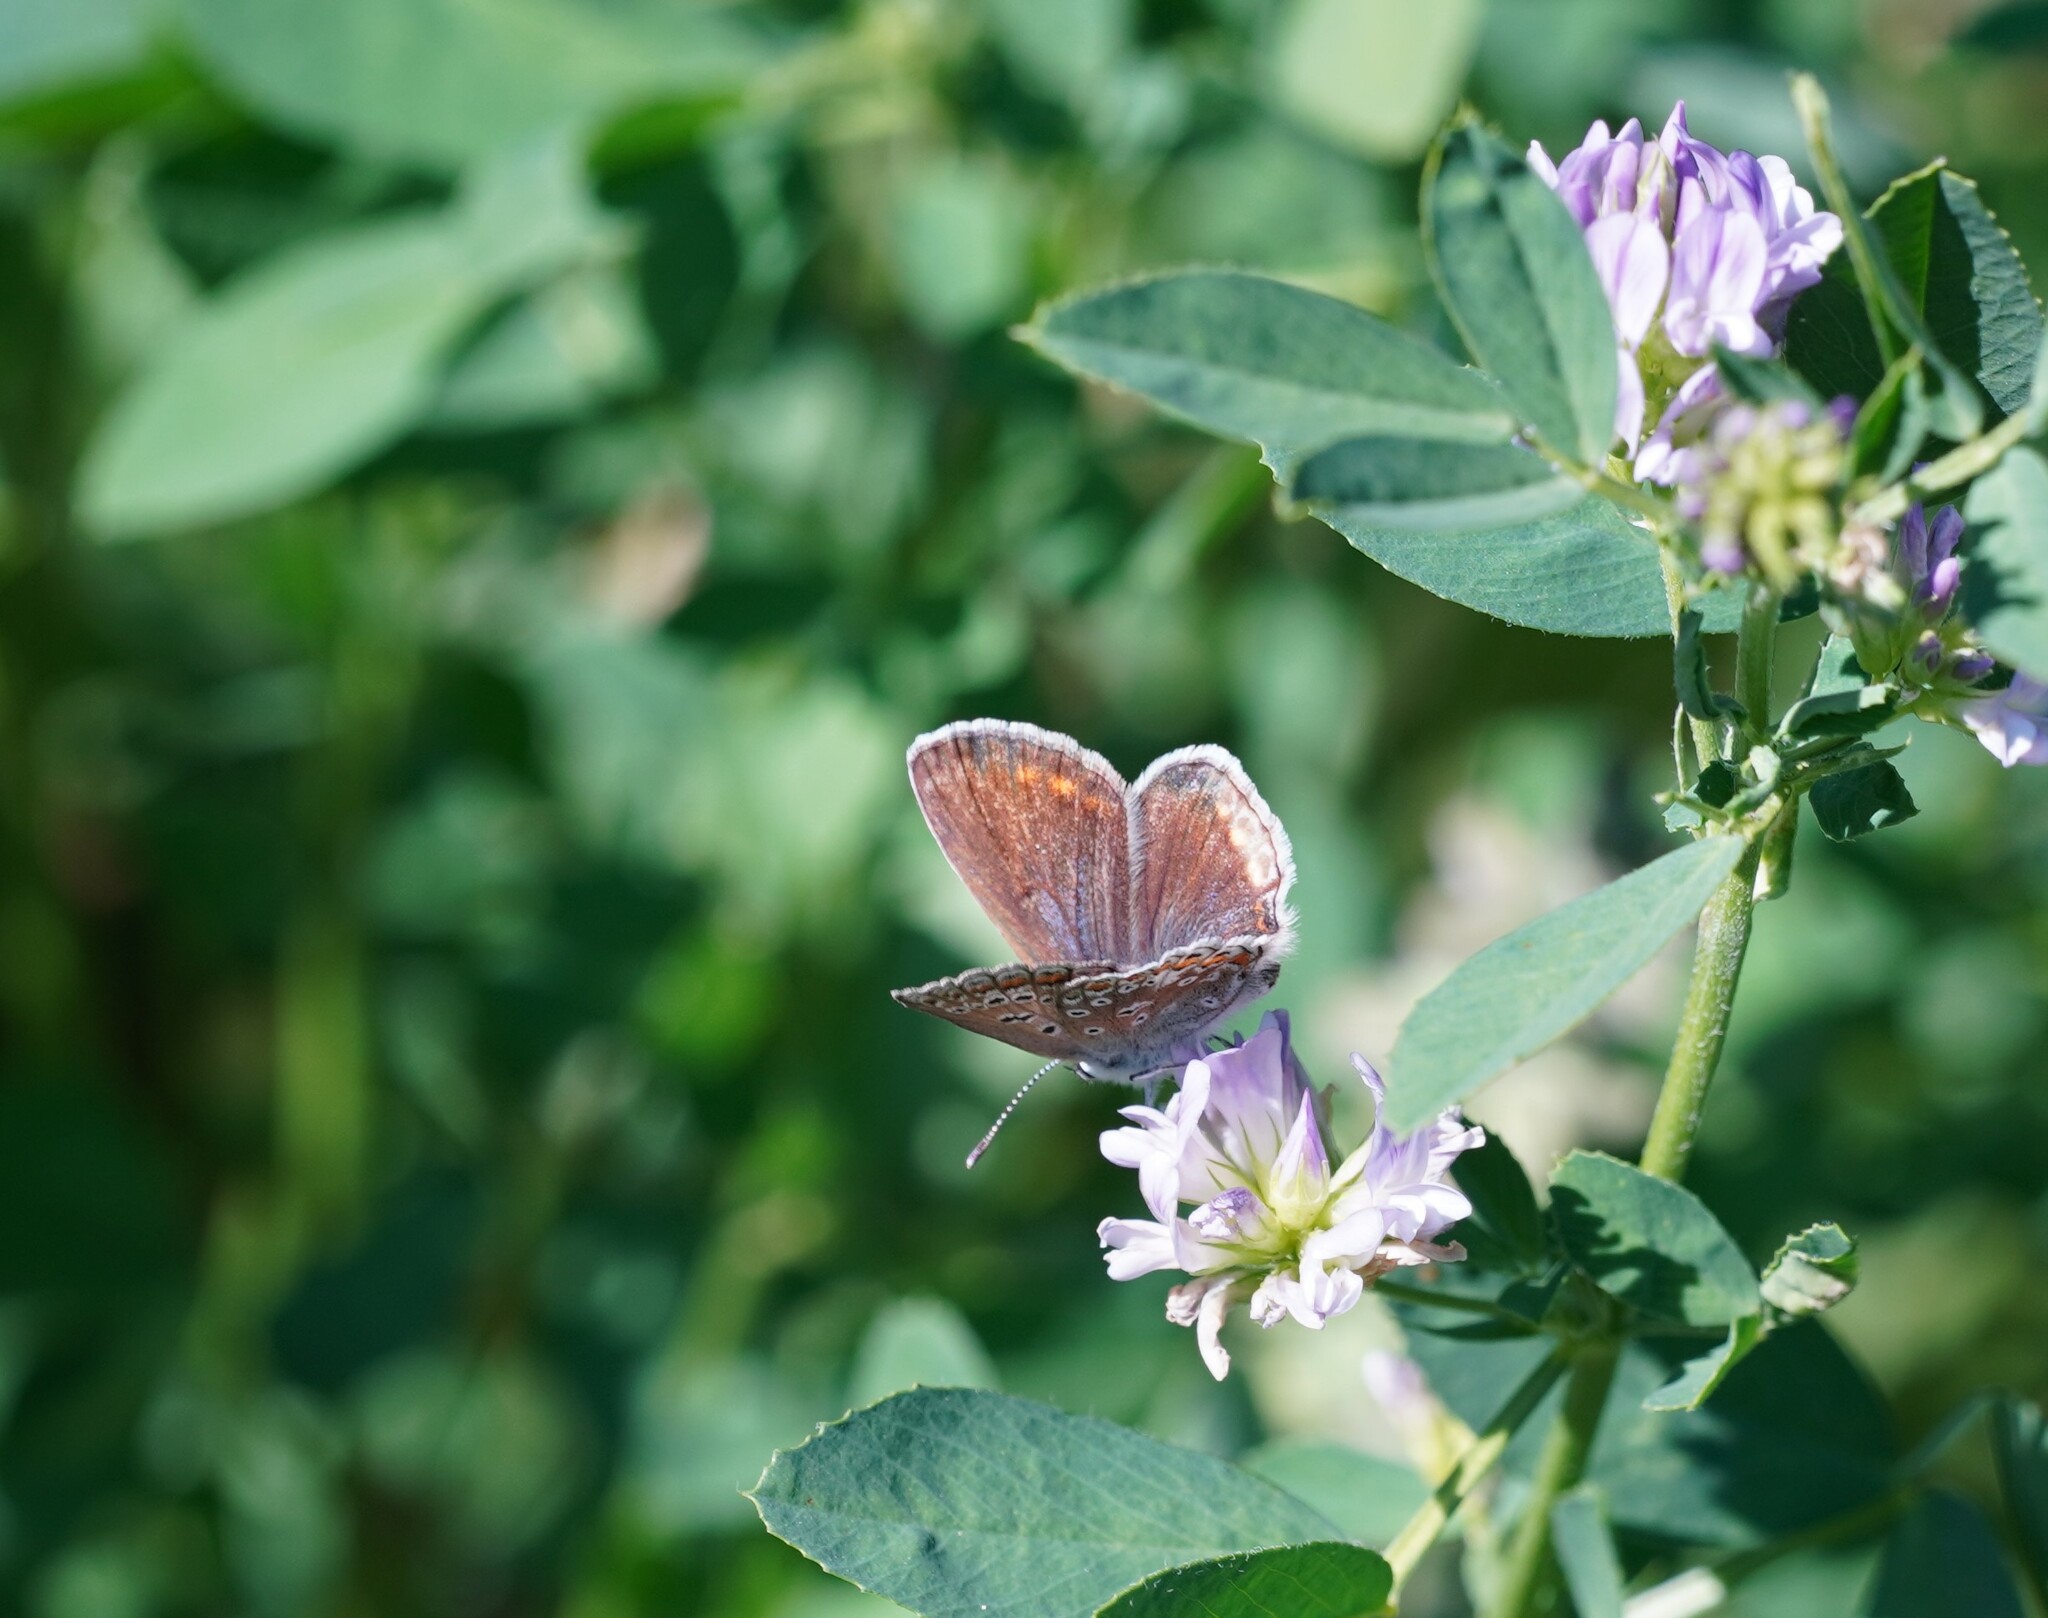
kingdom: Animalia
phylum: Arthropoda
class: Insecta
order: Lepidoptera
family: Lycaenidae
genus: Polyommatus
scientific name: Polyommatus icarus
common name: Common blue
